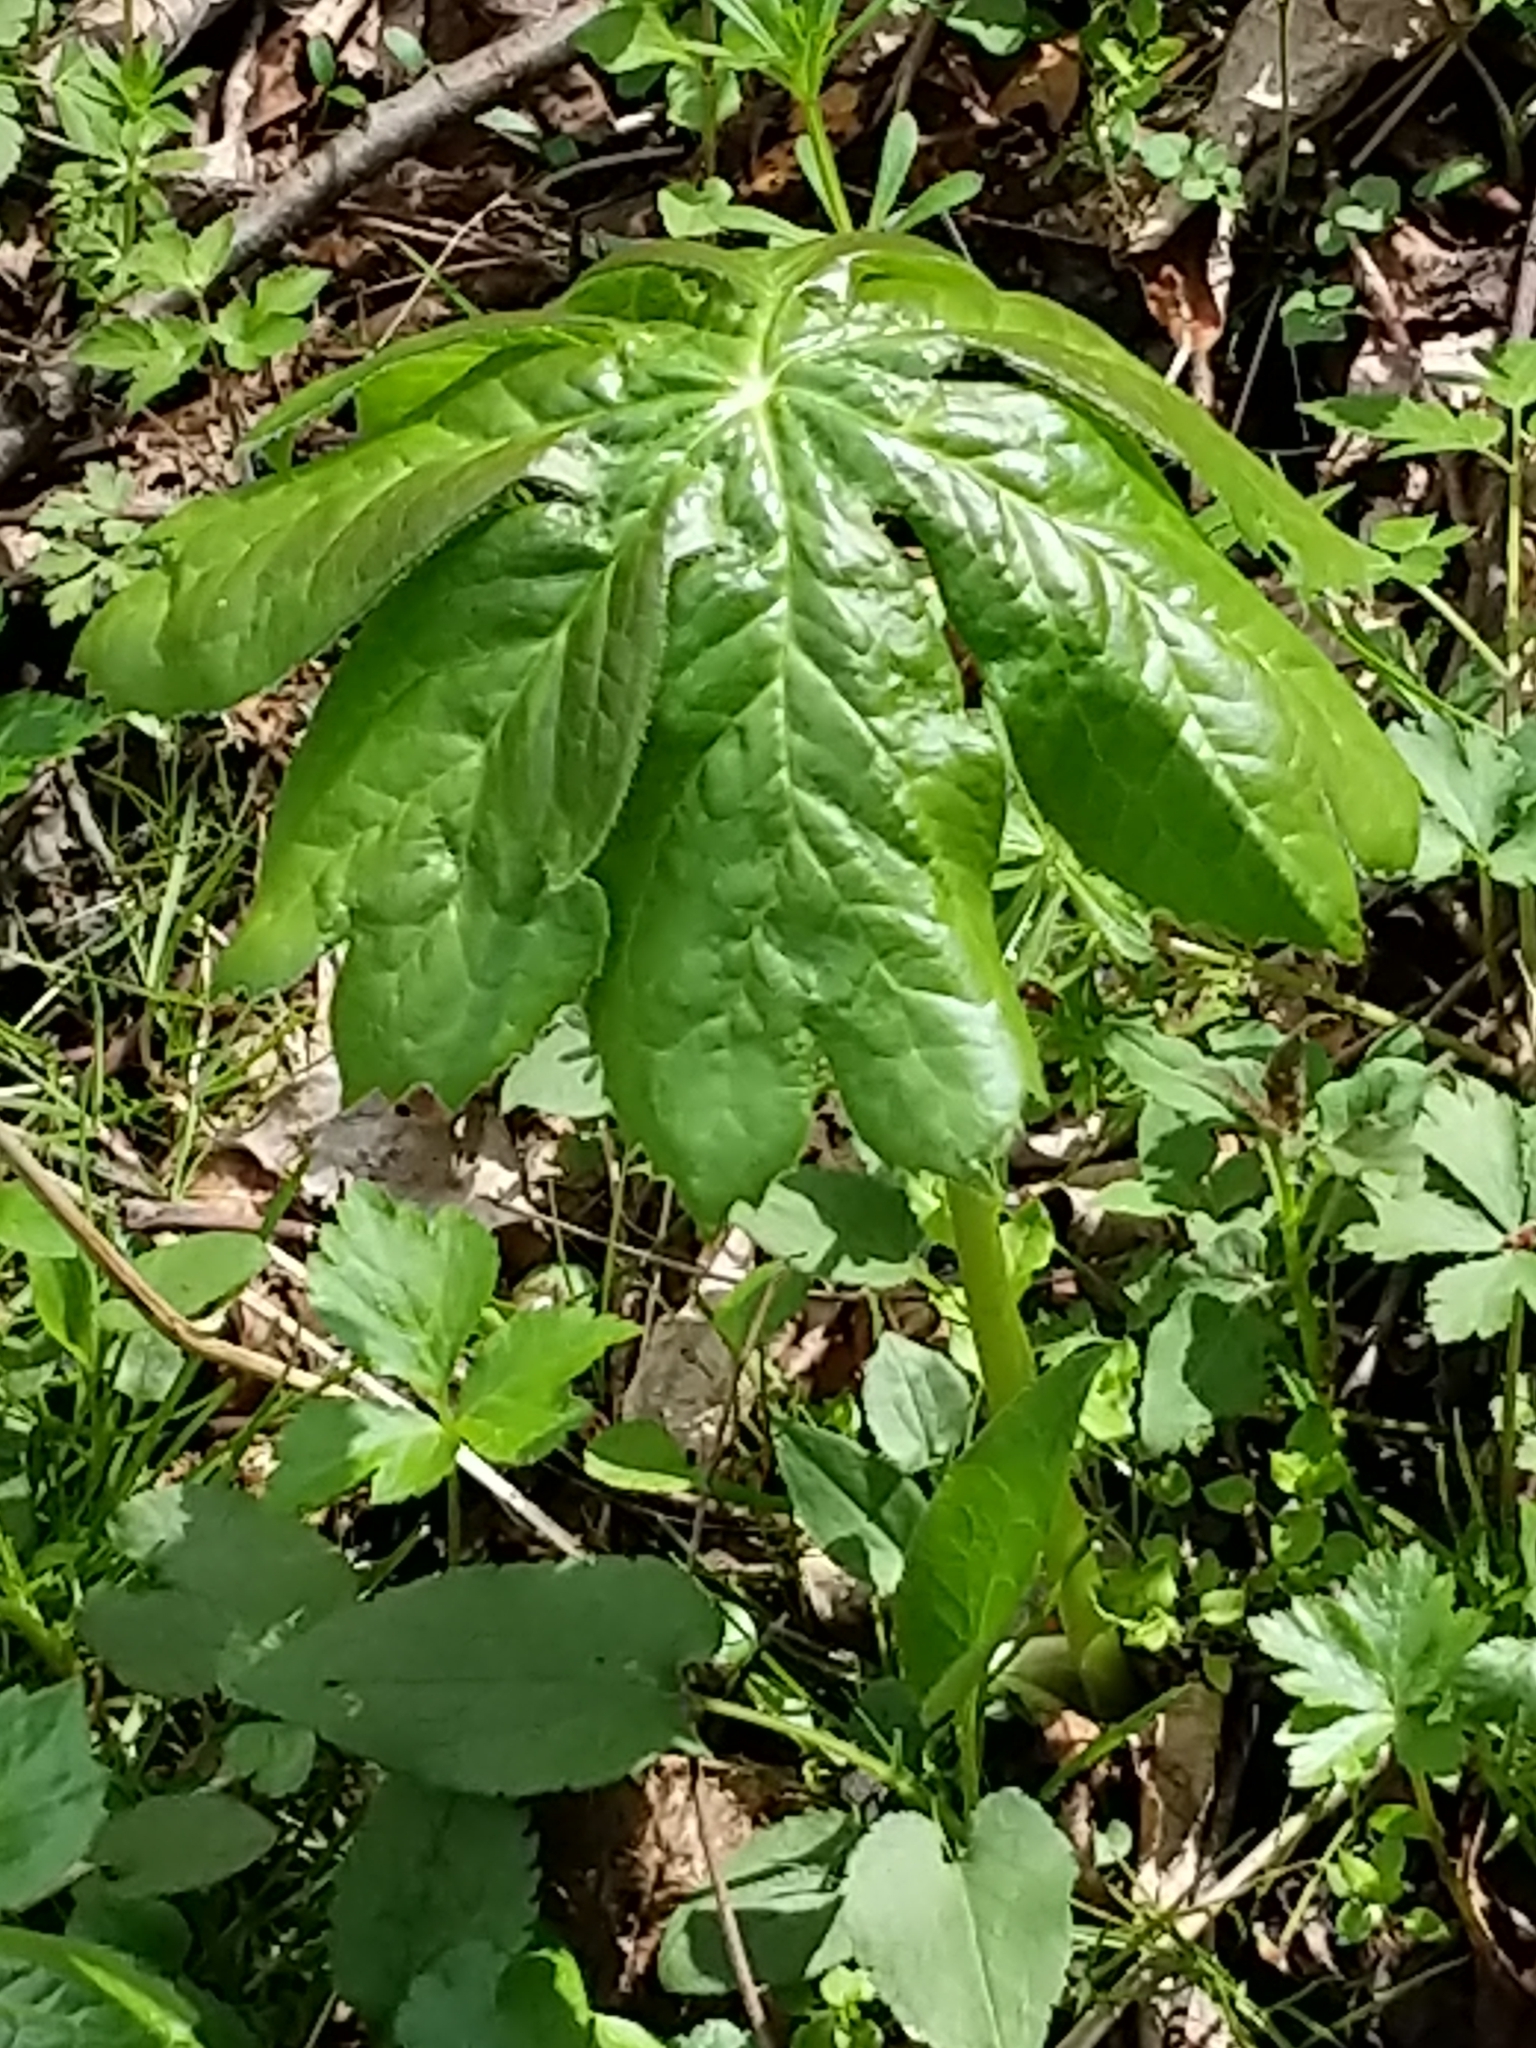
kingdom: Plantae
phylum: Tracheophyta
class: Magnoliopsida
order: Ranunculales
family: Berberidaceae
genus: Podophyllum
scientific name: Podophyllum peltatum
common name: Wild mandrake
